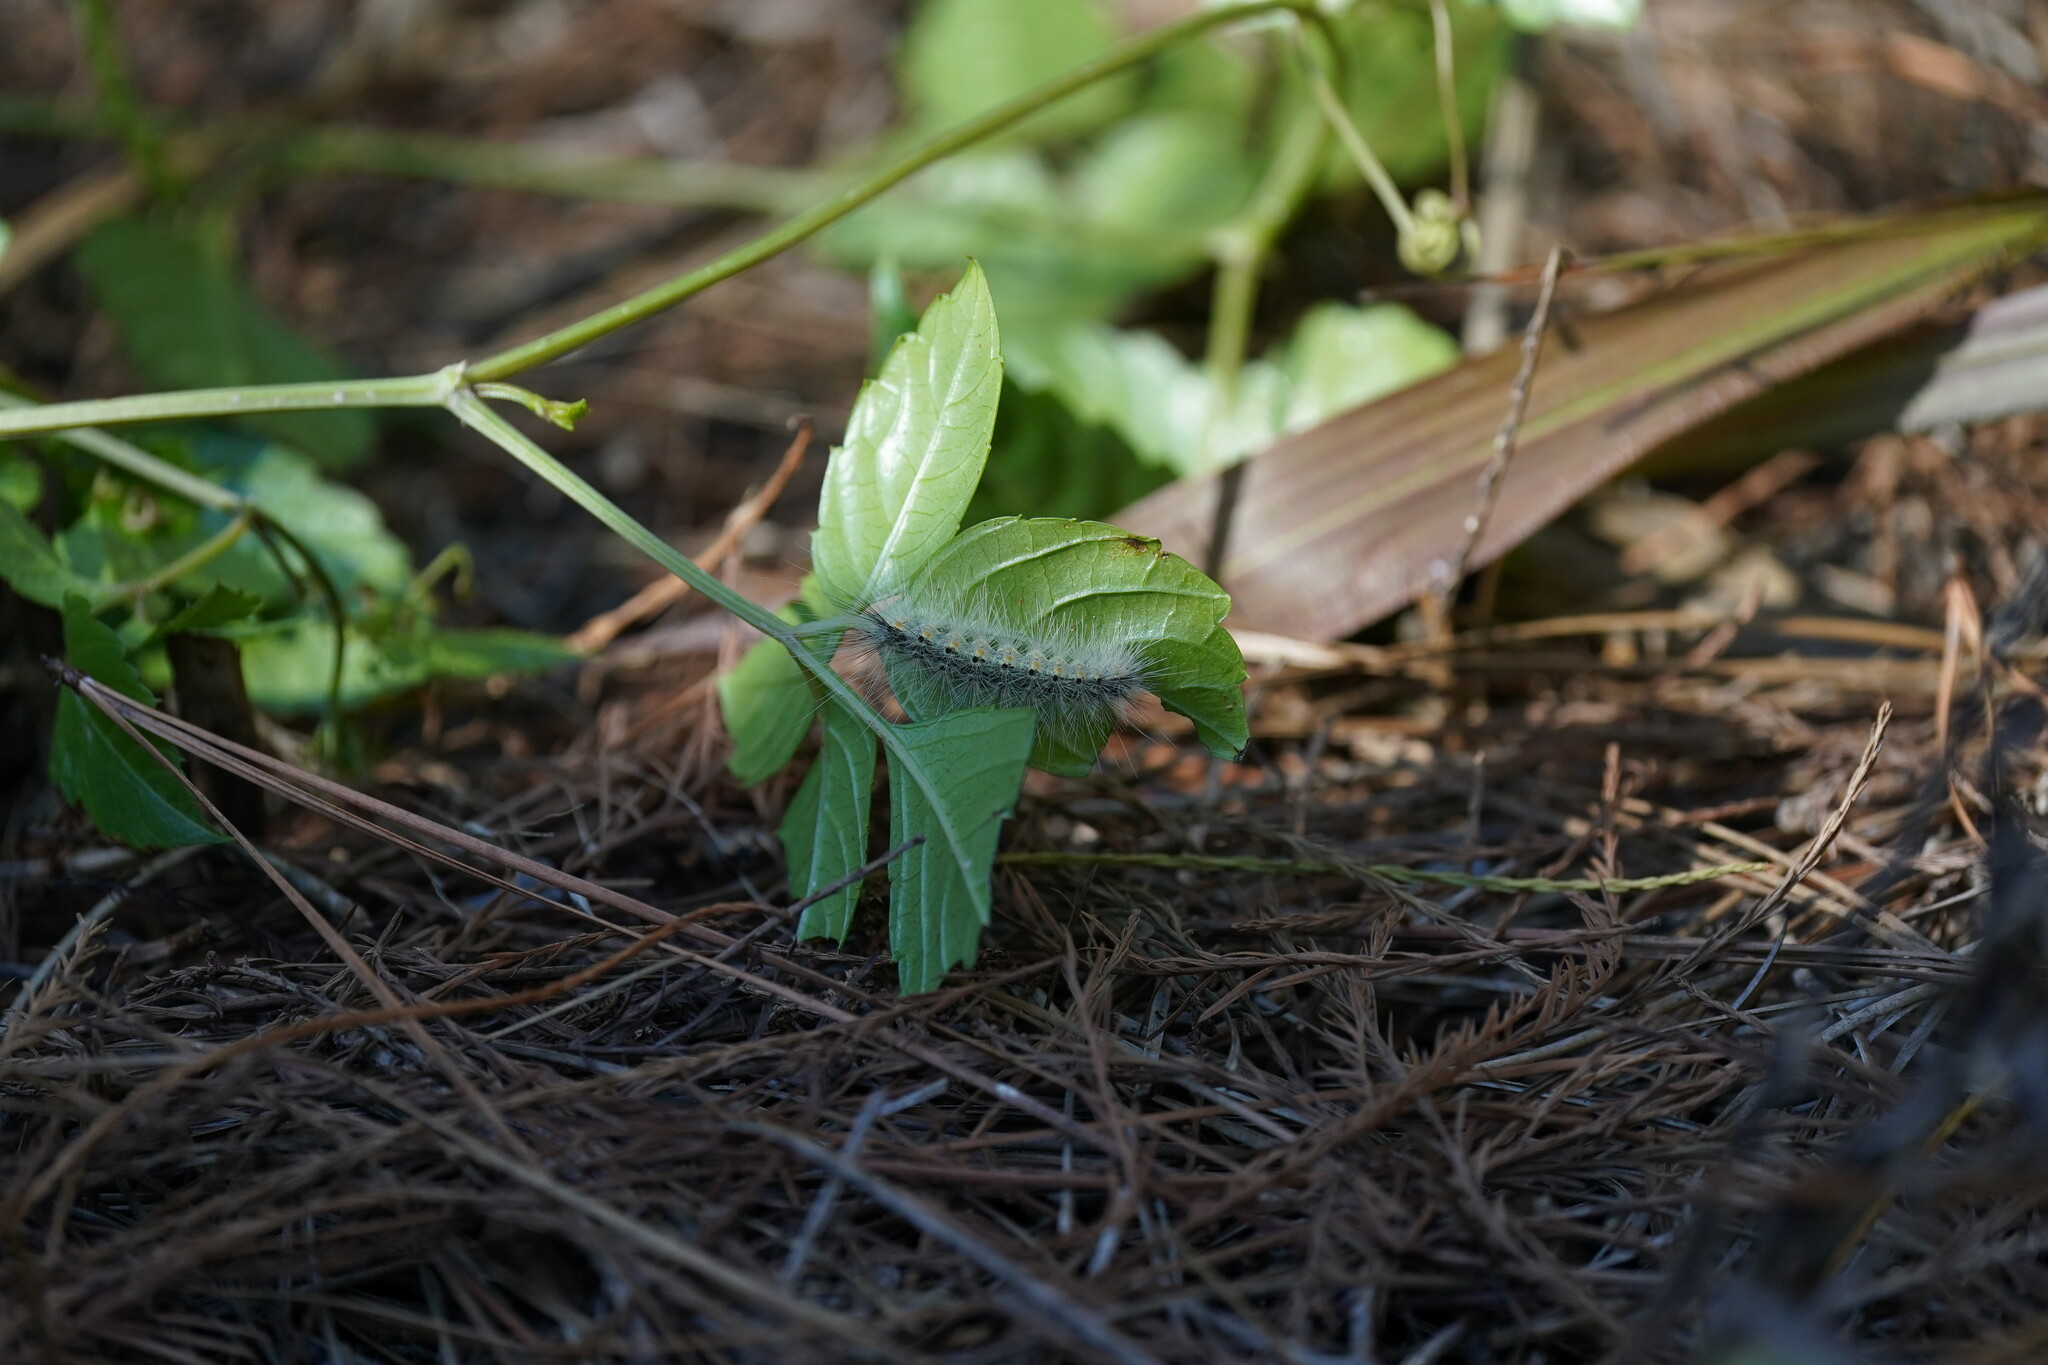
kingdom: Animalia
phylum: Arthropoda
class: Insecta
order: Lepidoptera
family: Erebidae
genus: Hyphantria
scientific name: Hyphantria cunea
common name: American white moth
